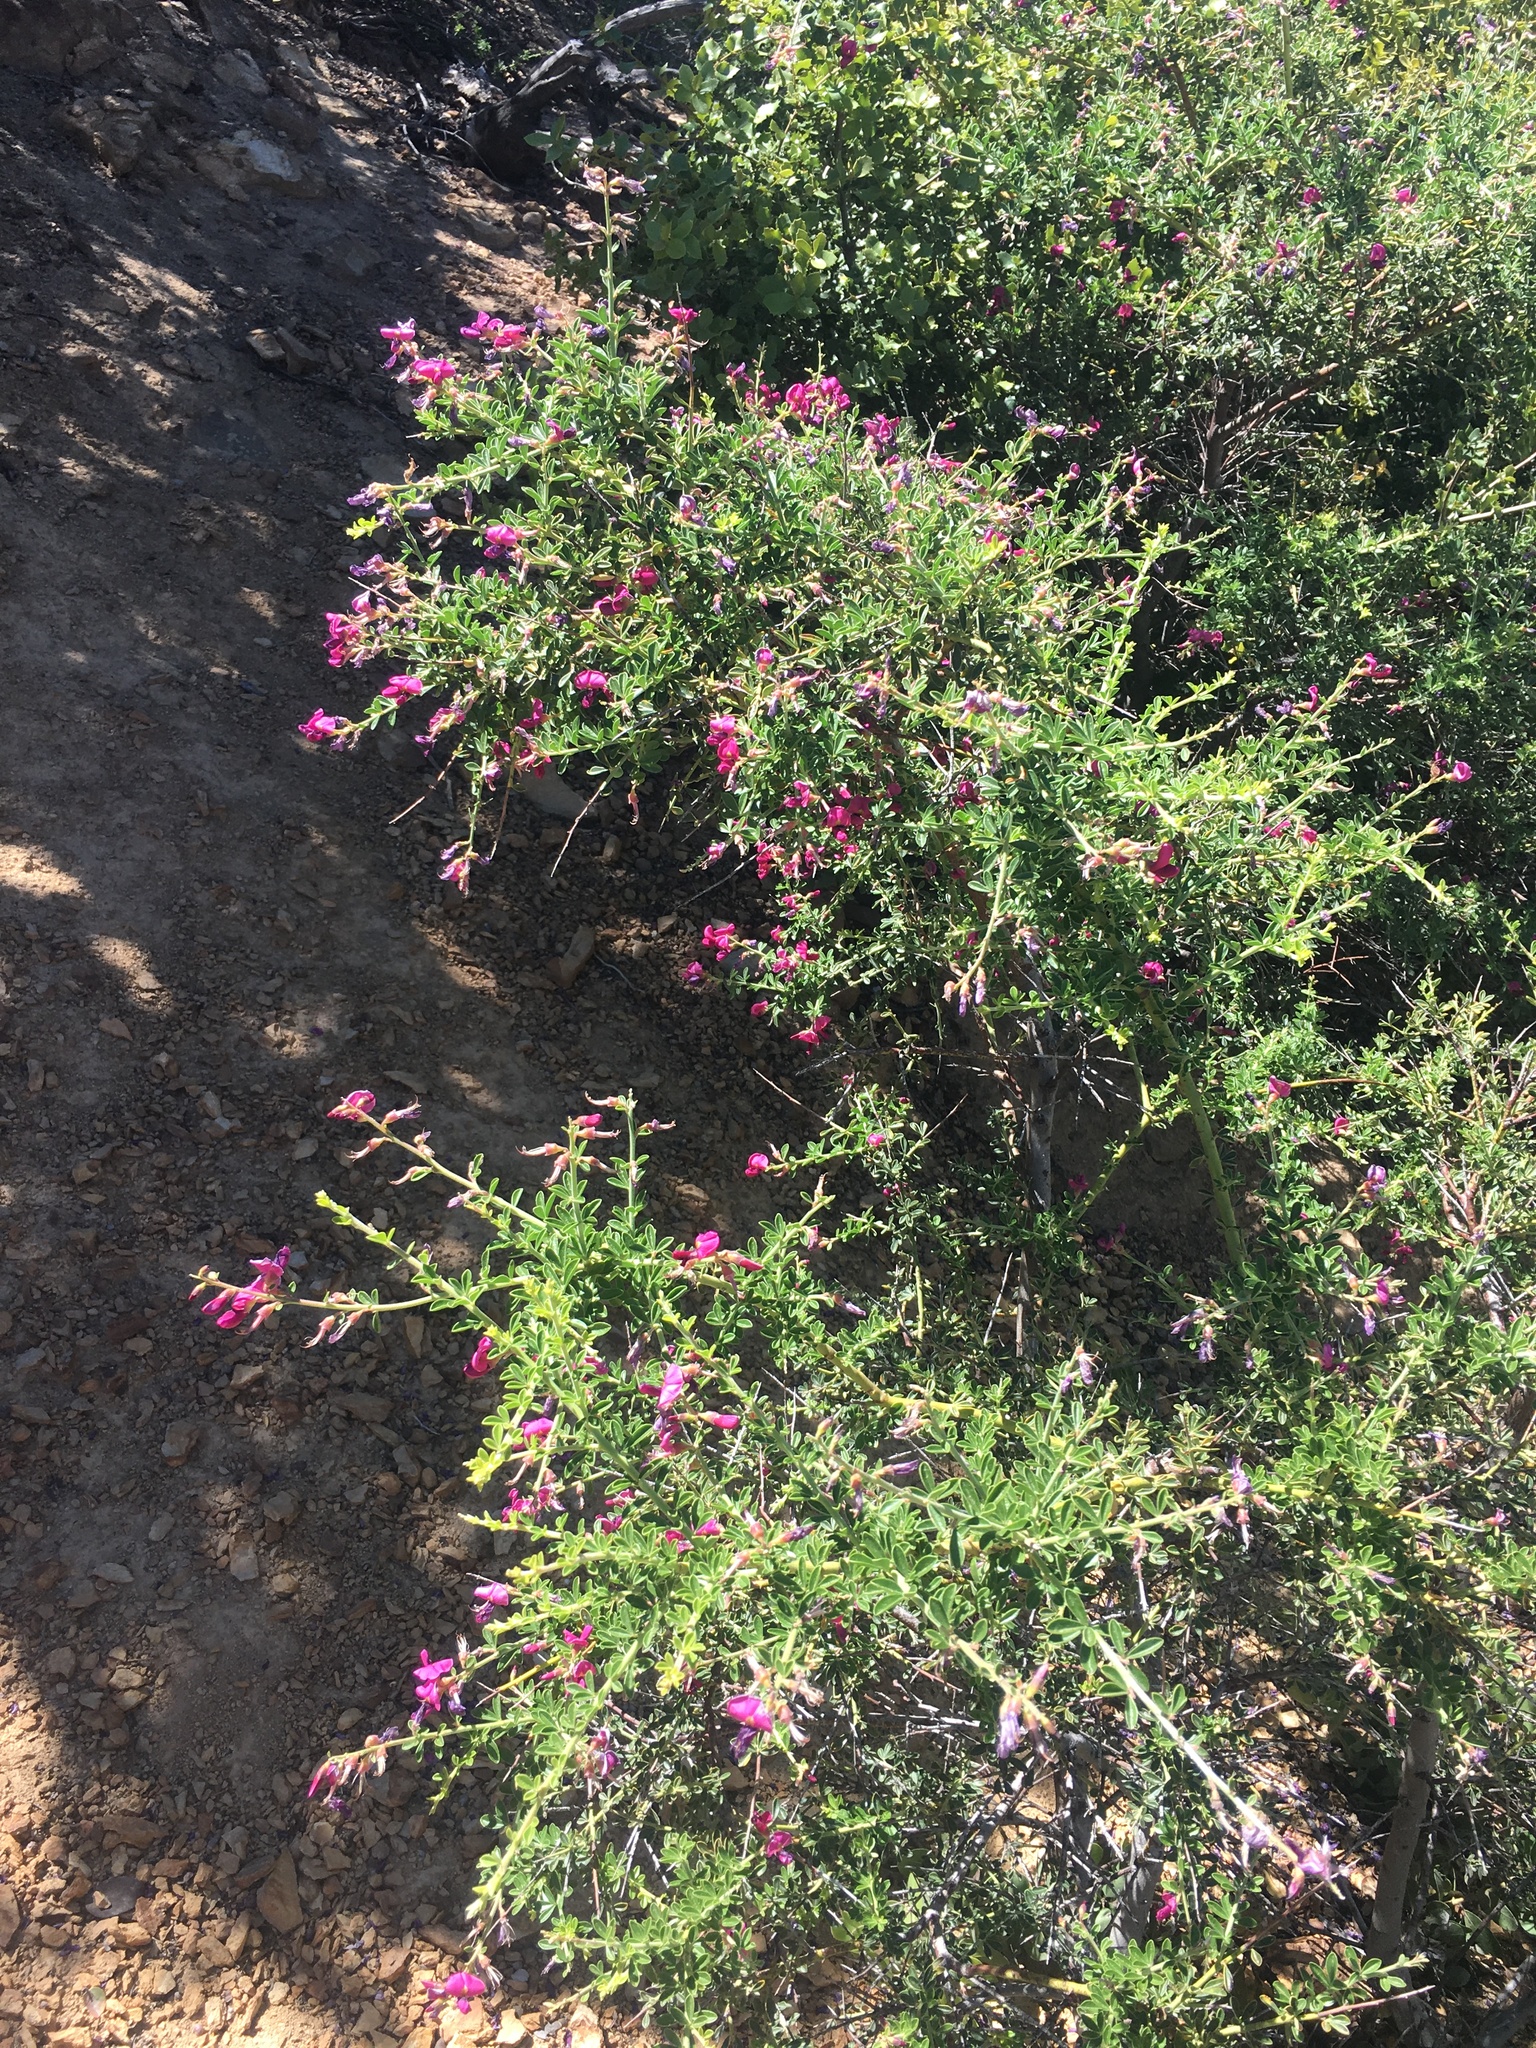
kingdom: Plantae
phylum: Tracheophyta
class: Magnoliopsida
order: Fabales
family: Fabaceae
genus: Pickeringia
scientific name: Pickeringia montana
